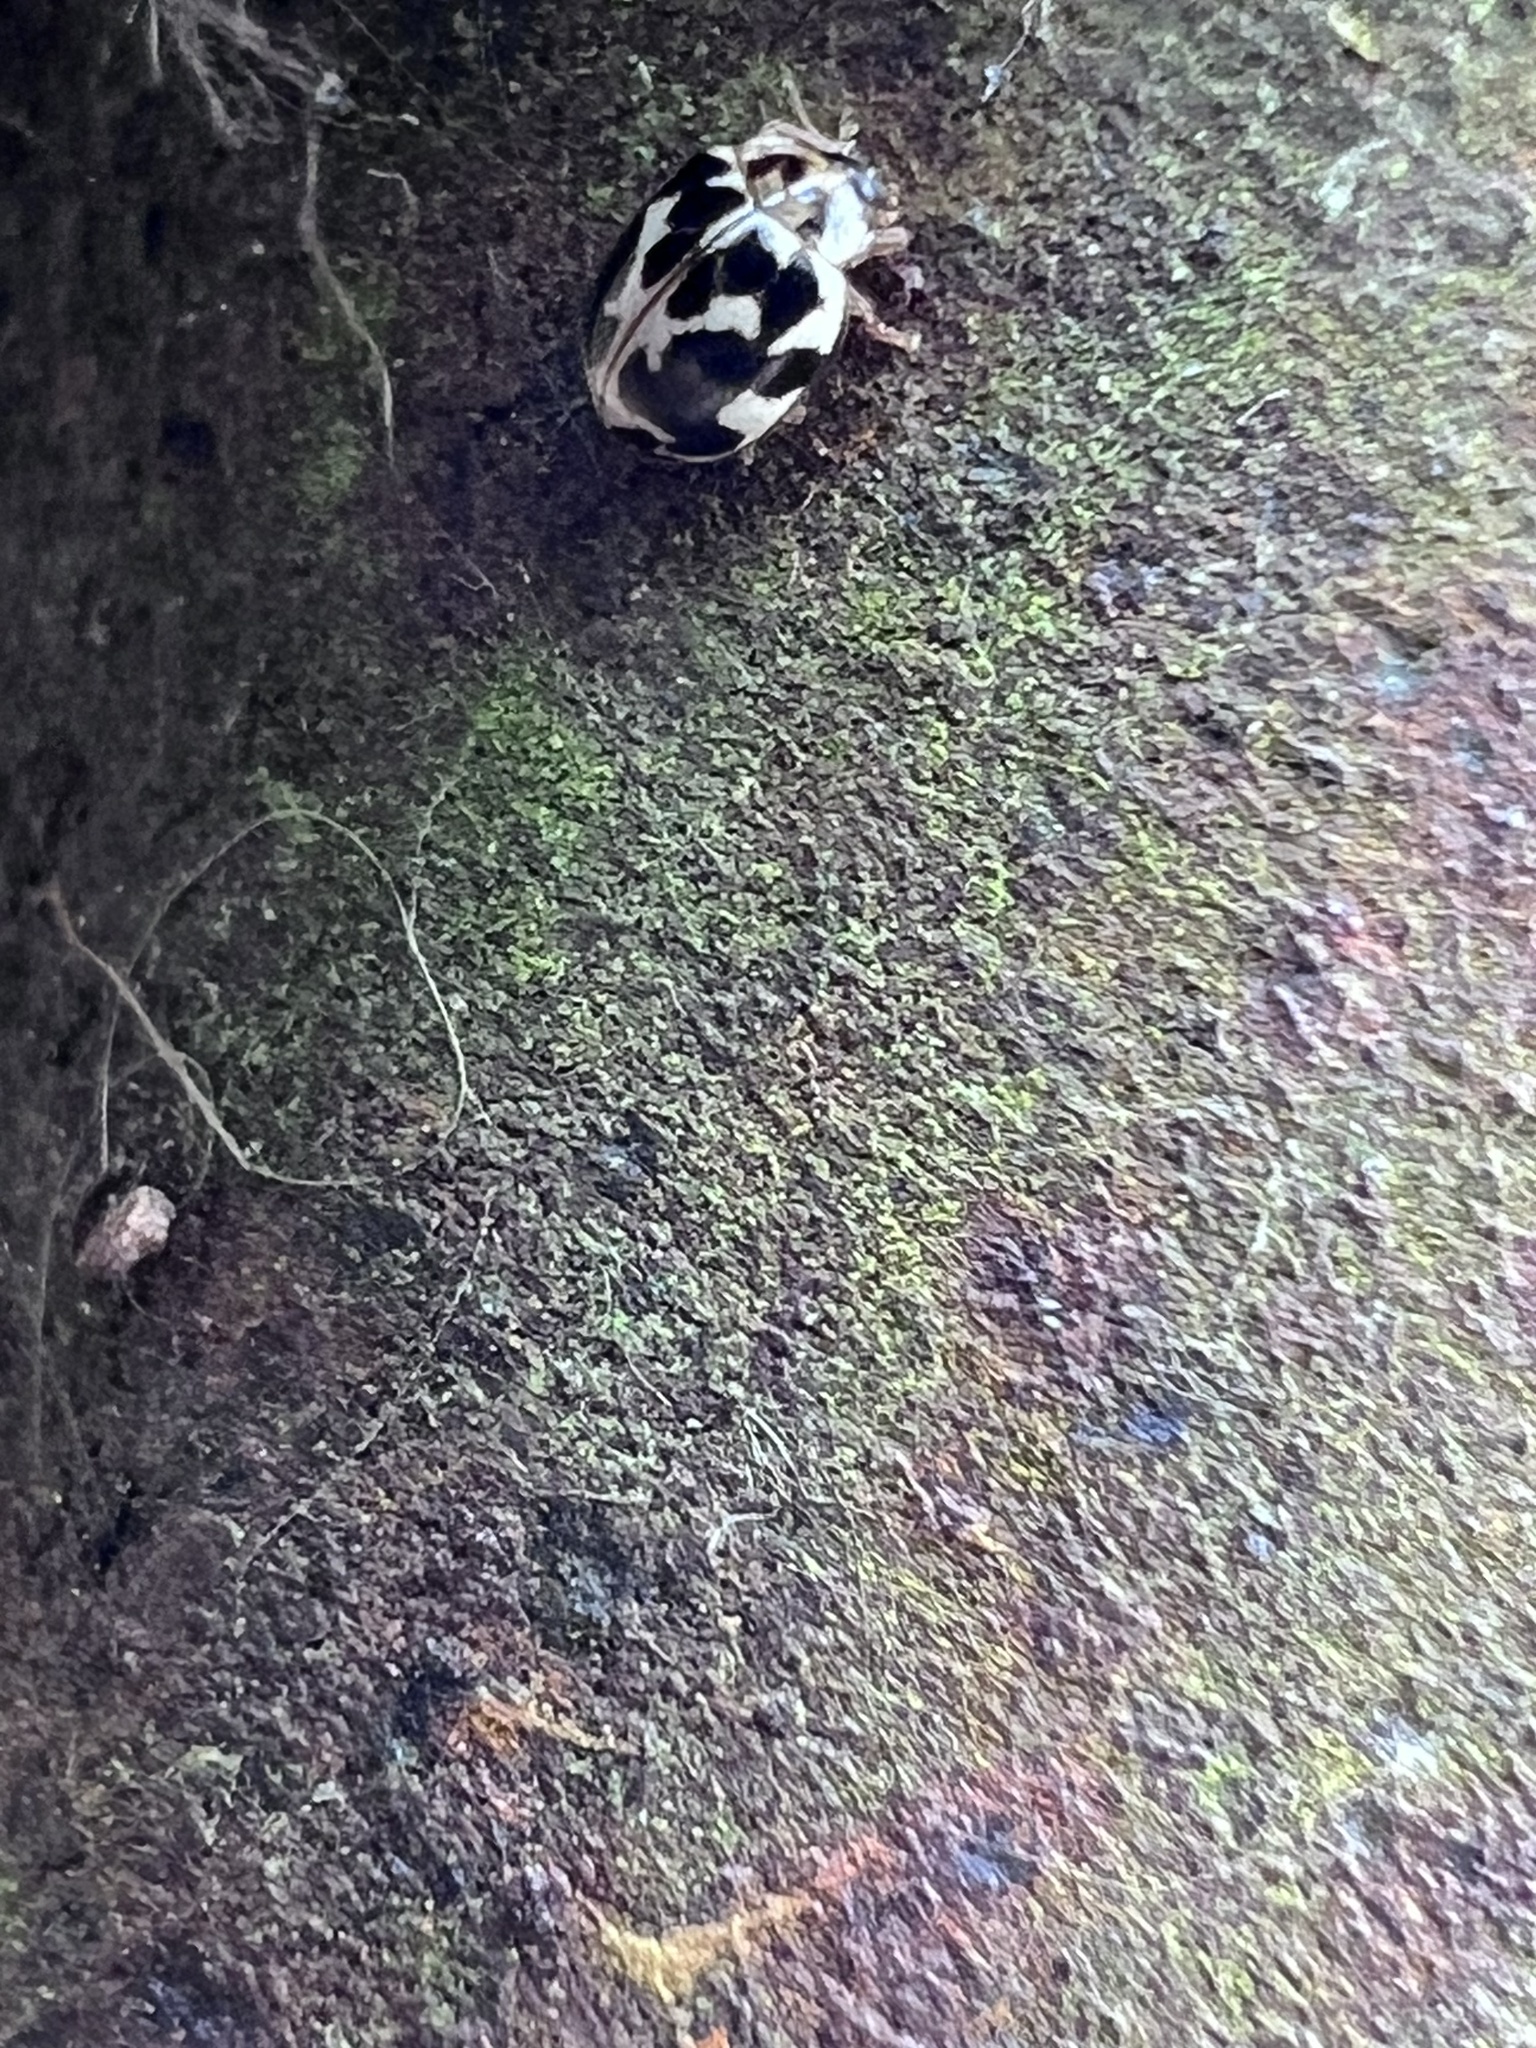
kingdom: Animalia
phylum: Arthropoda
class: Insecta
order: Coleoptera
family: Coccinellidae
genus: Psyllobora
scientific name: Psyllobora vigintimaculata
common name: Ladybird beetle
